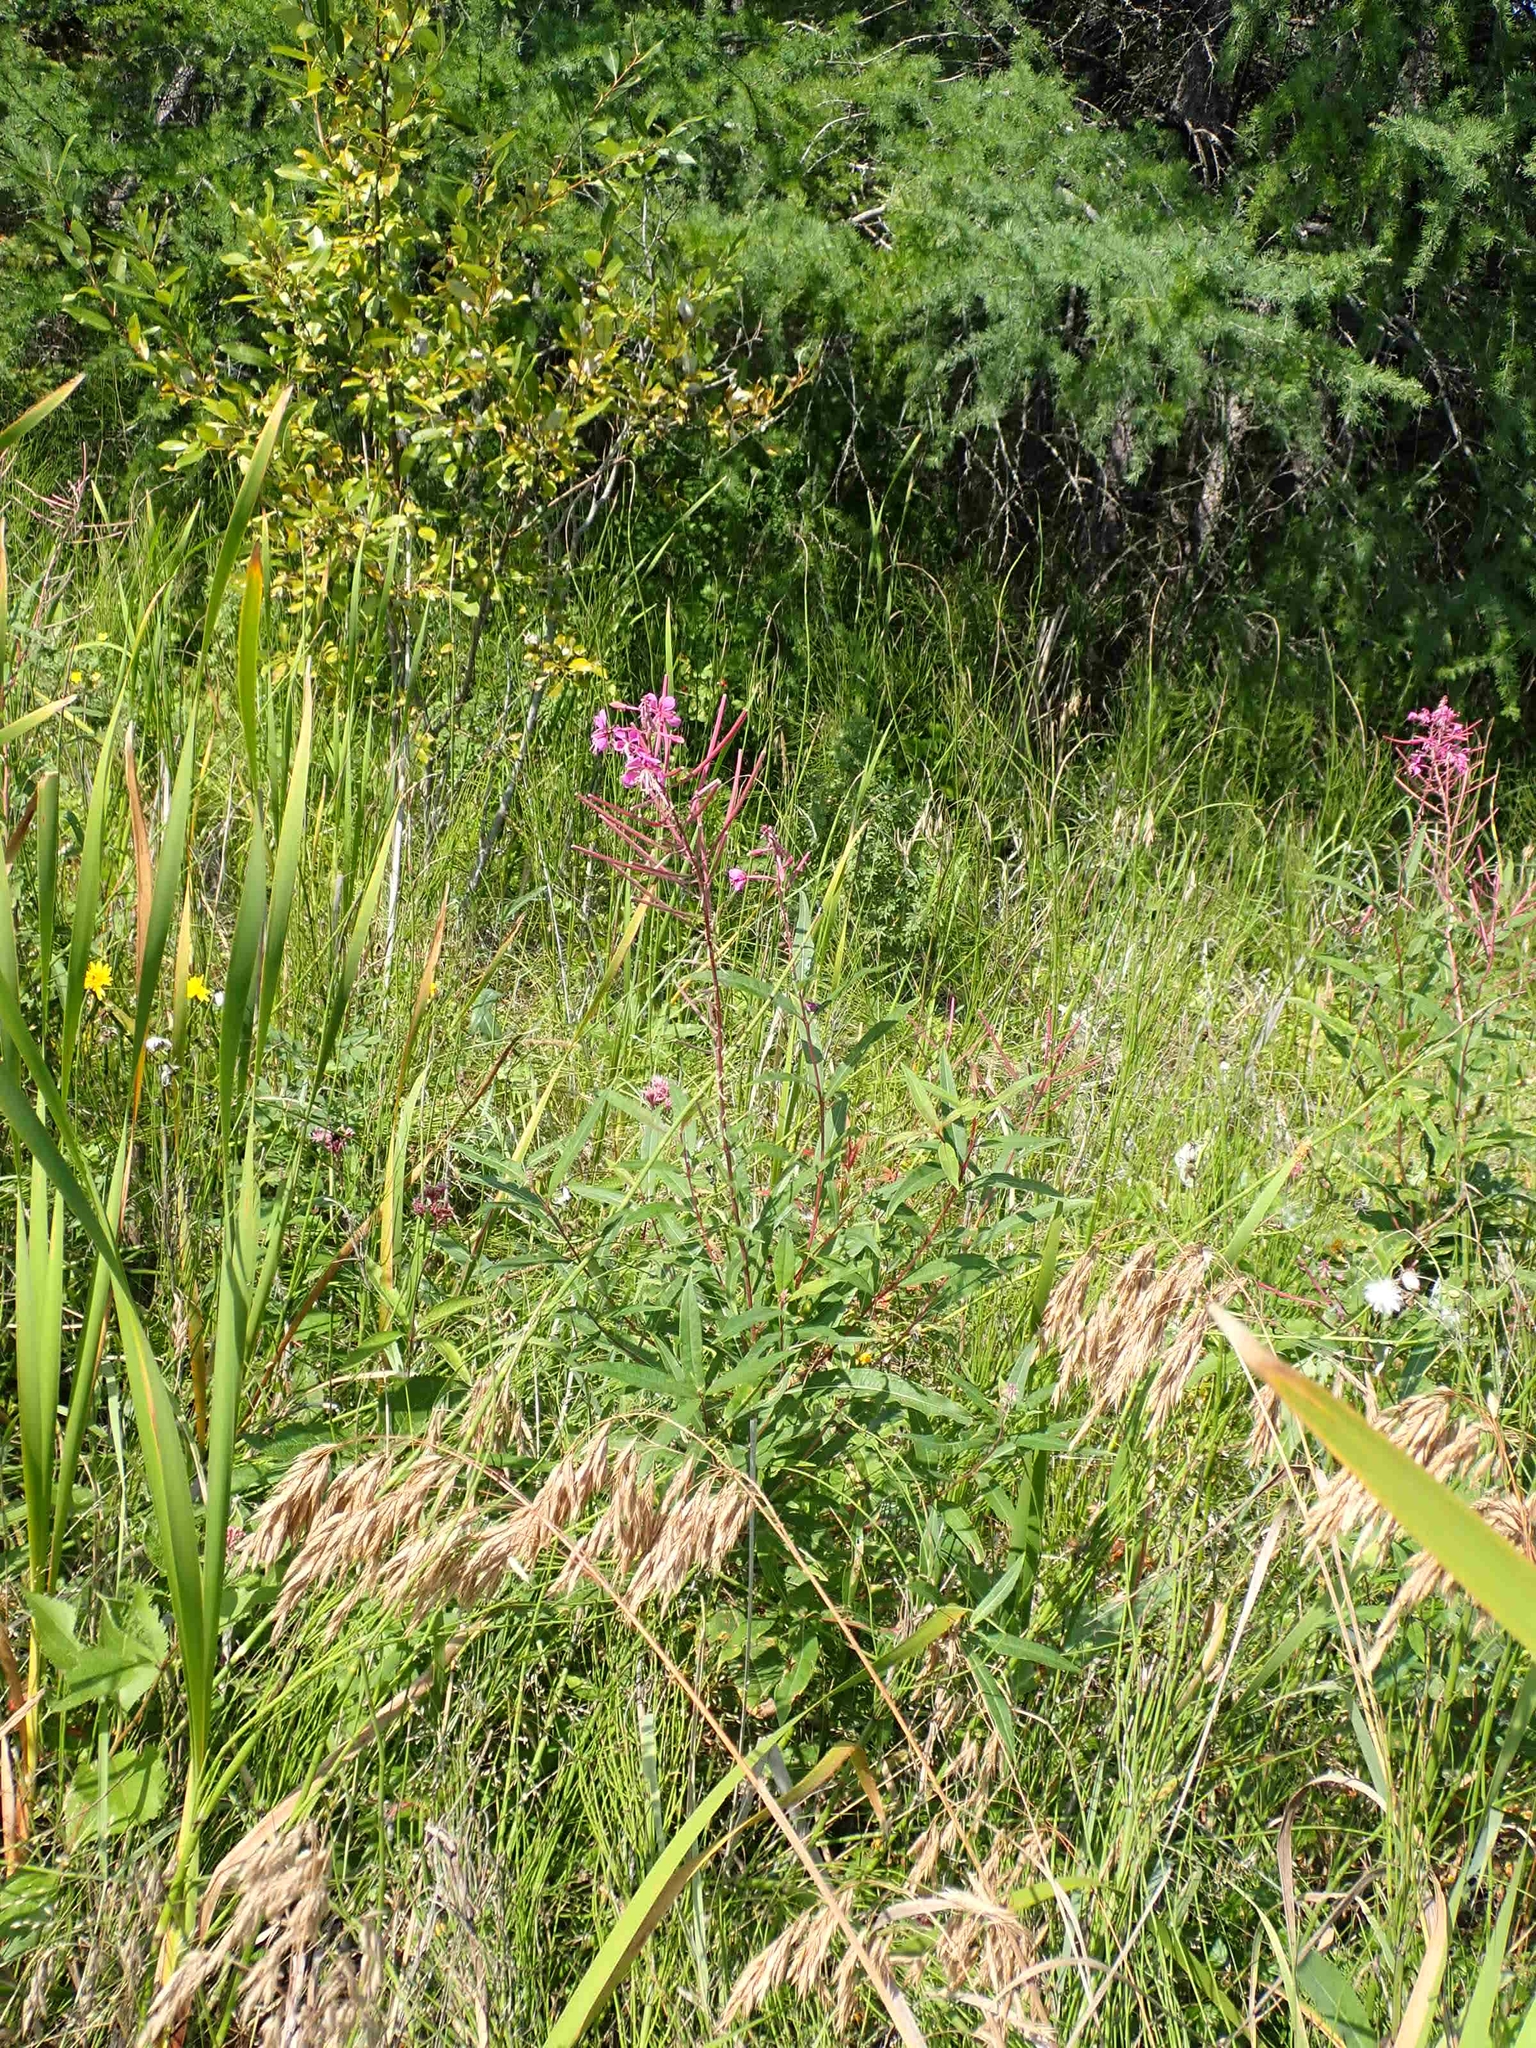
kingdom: Plantae
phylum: Tracheophyta
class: Magnoliopsida
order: Myrtales
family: Onagraceae
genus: Chamaenerion
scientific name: Chamaenerion angustifolium
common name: Fireweed
